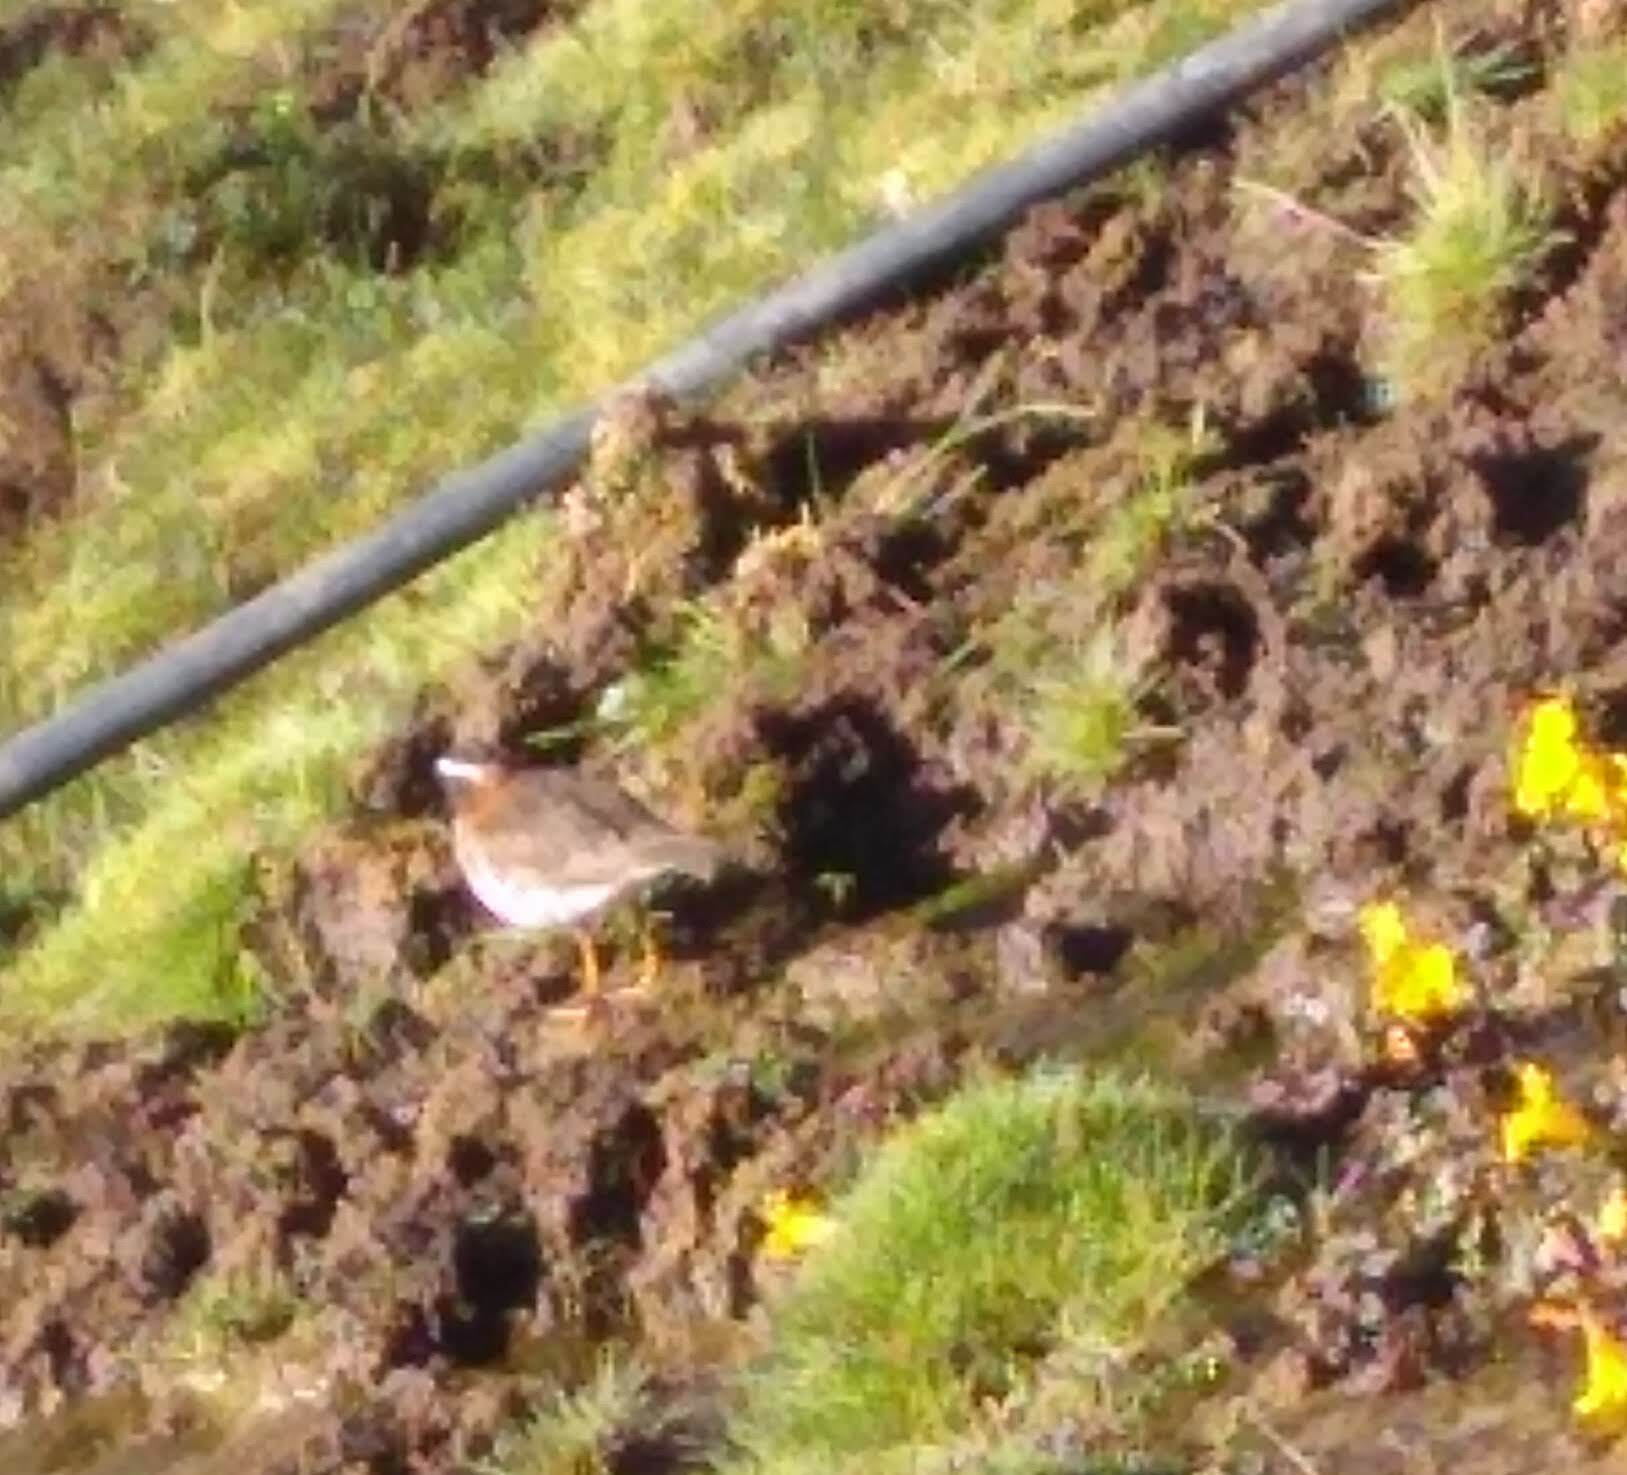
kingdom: Animalia
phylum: Chordata
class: Aves
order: Charadriiformes
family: Charadriidae
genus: Phegornis
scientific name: Phegornis mitchellii
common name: Diademed sandpiper-plover
